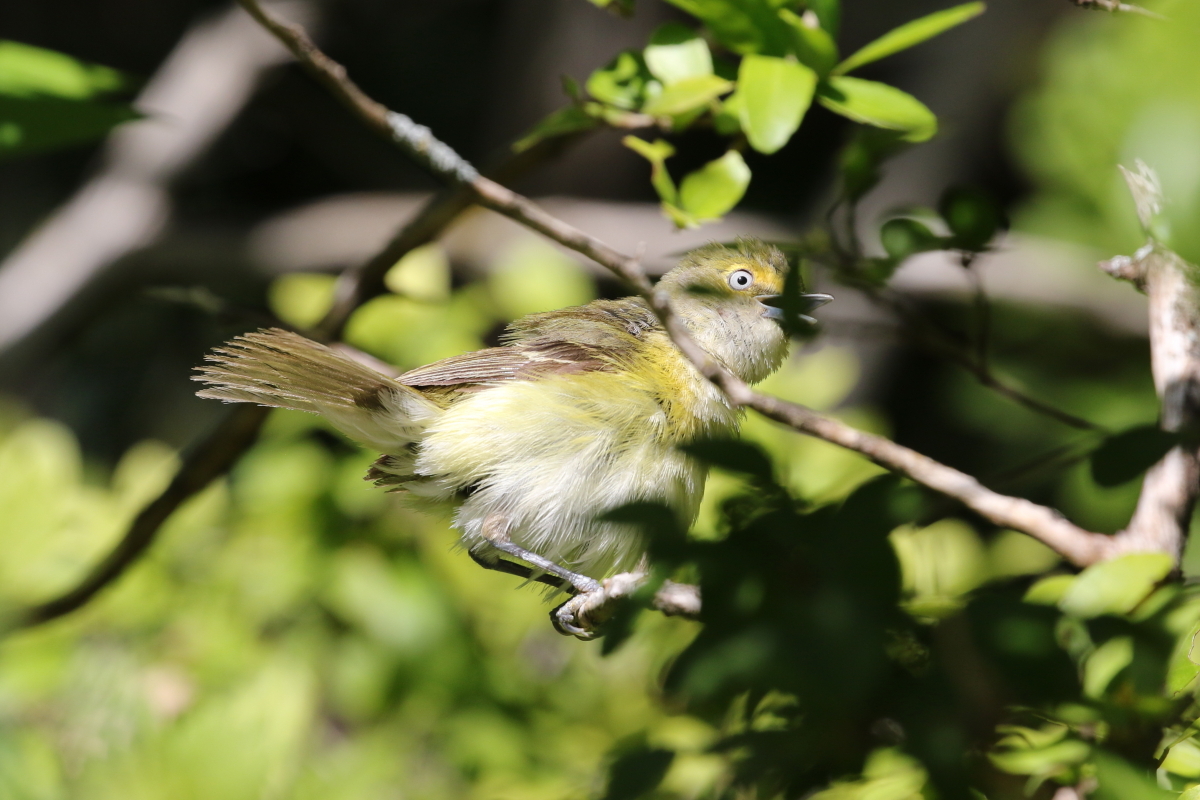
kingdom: Animalia
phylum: Chordata
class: Aves
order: Passeriformes
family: Vireonidae
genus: Vireo
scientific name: Vireo griseus
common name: White-eyed vireo
